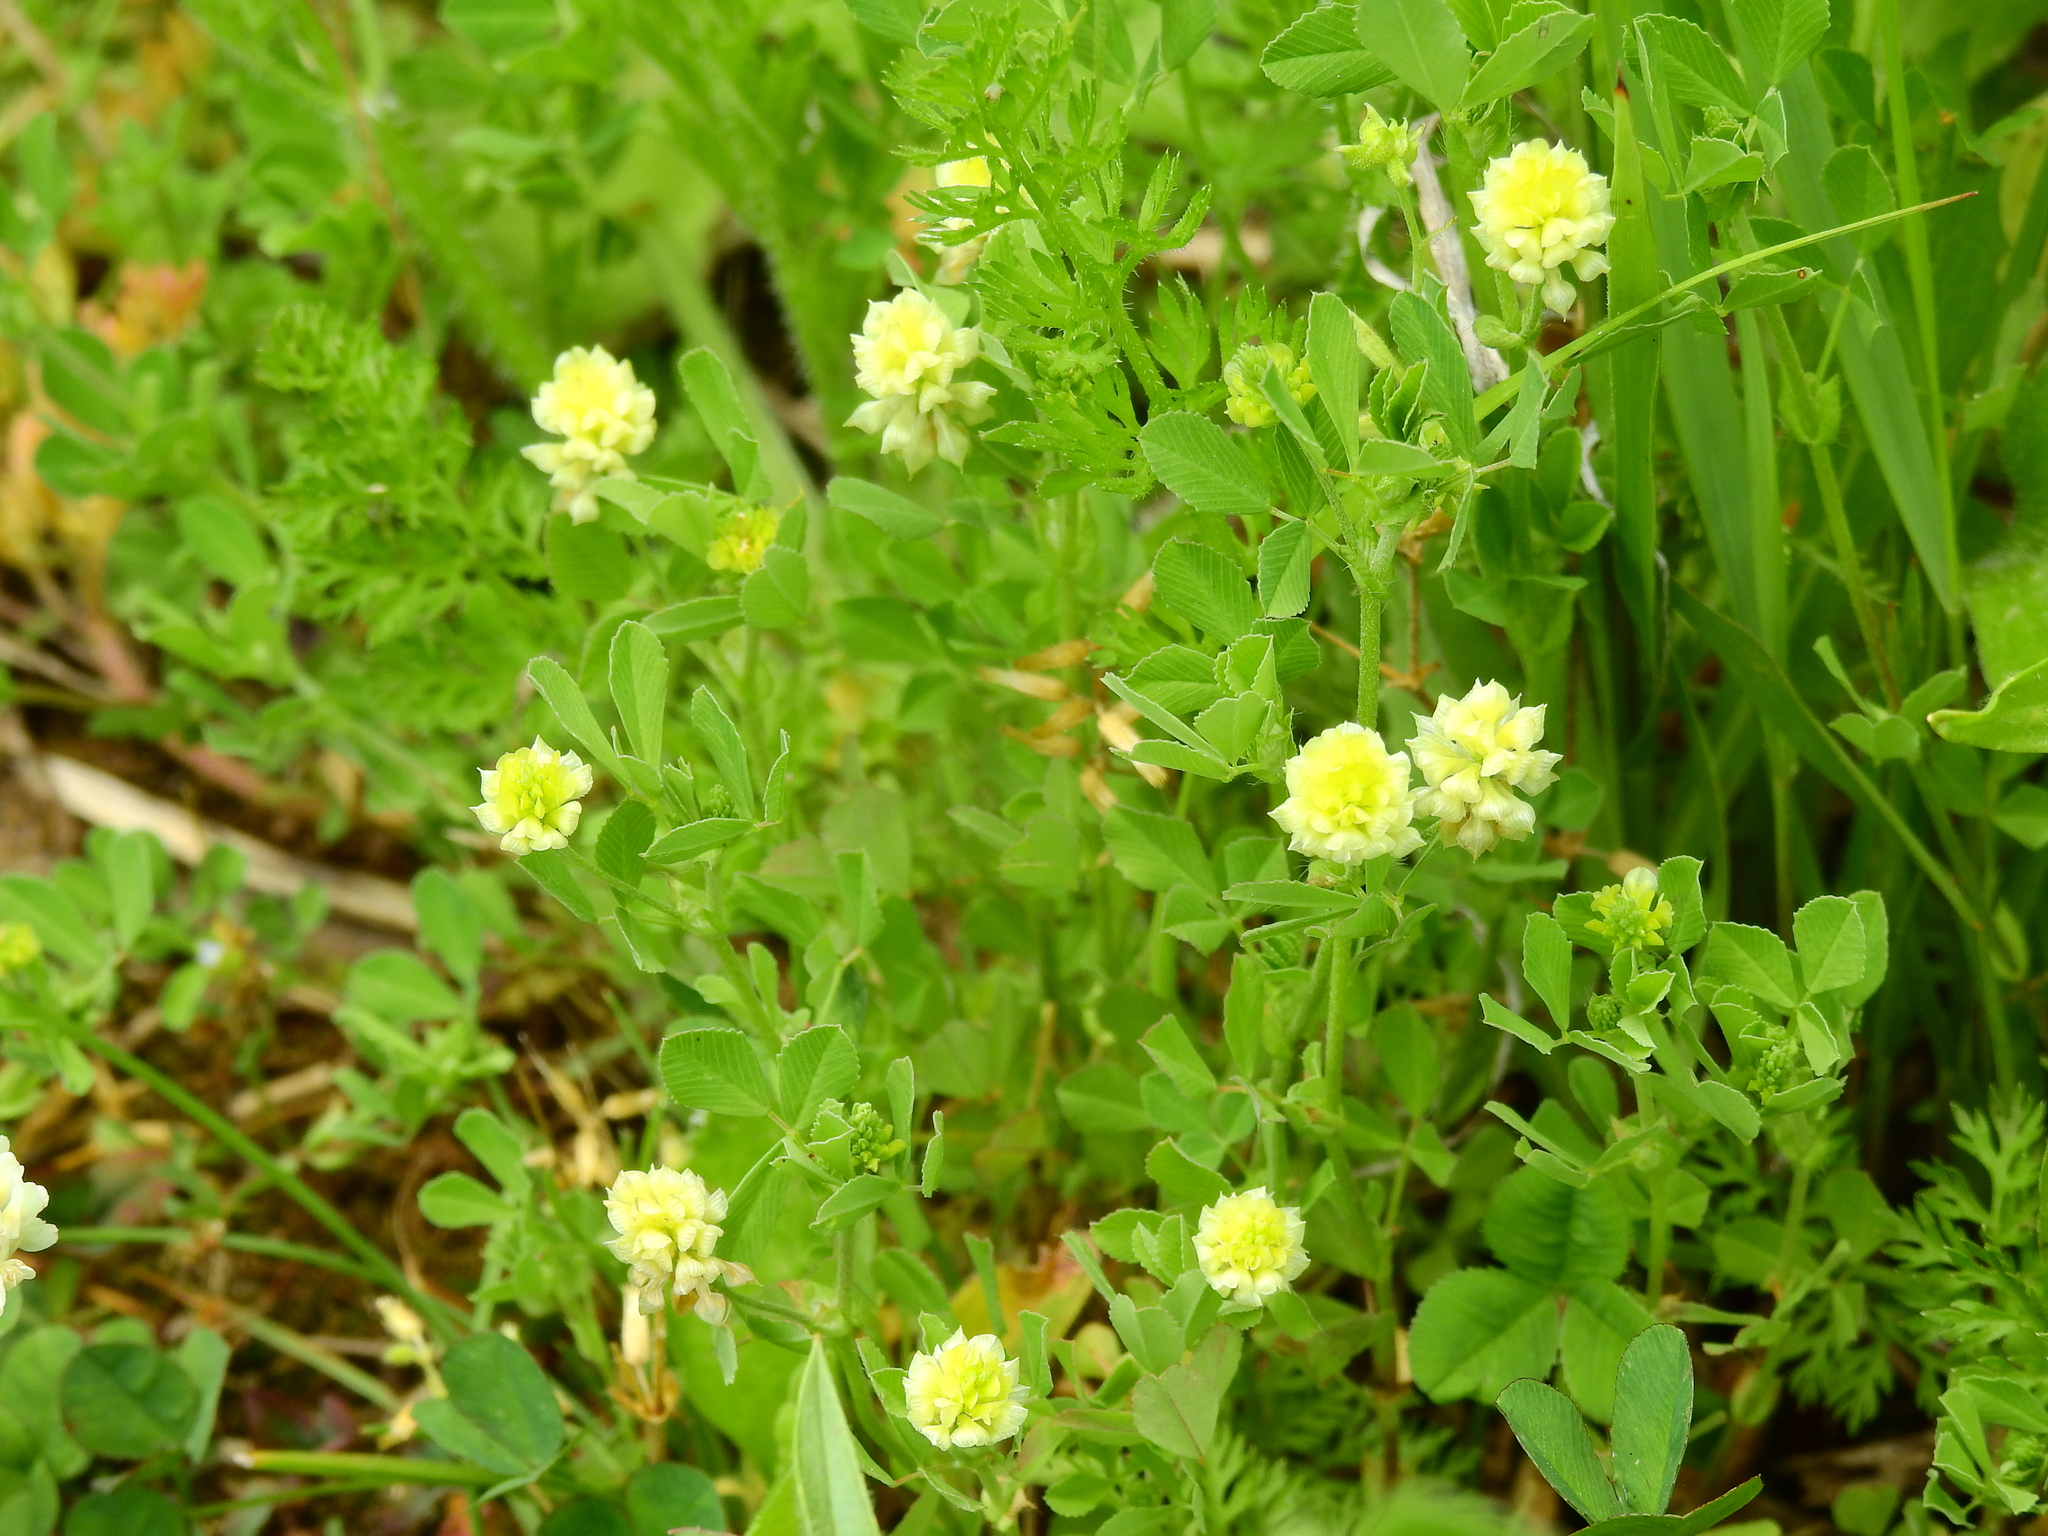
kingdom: Plantae
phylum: Tracheophyta
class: Magnoliopsida
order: Fabales
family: Fabaceae
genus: Trifolium
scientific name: Trifolium campestre
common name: Field clover
